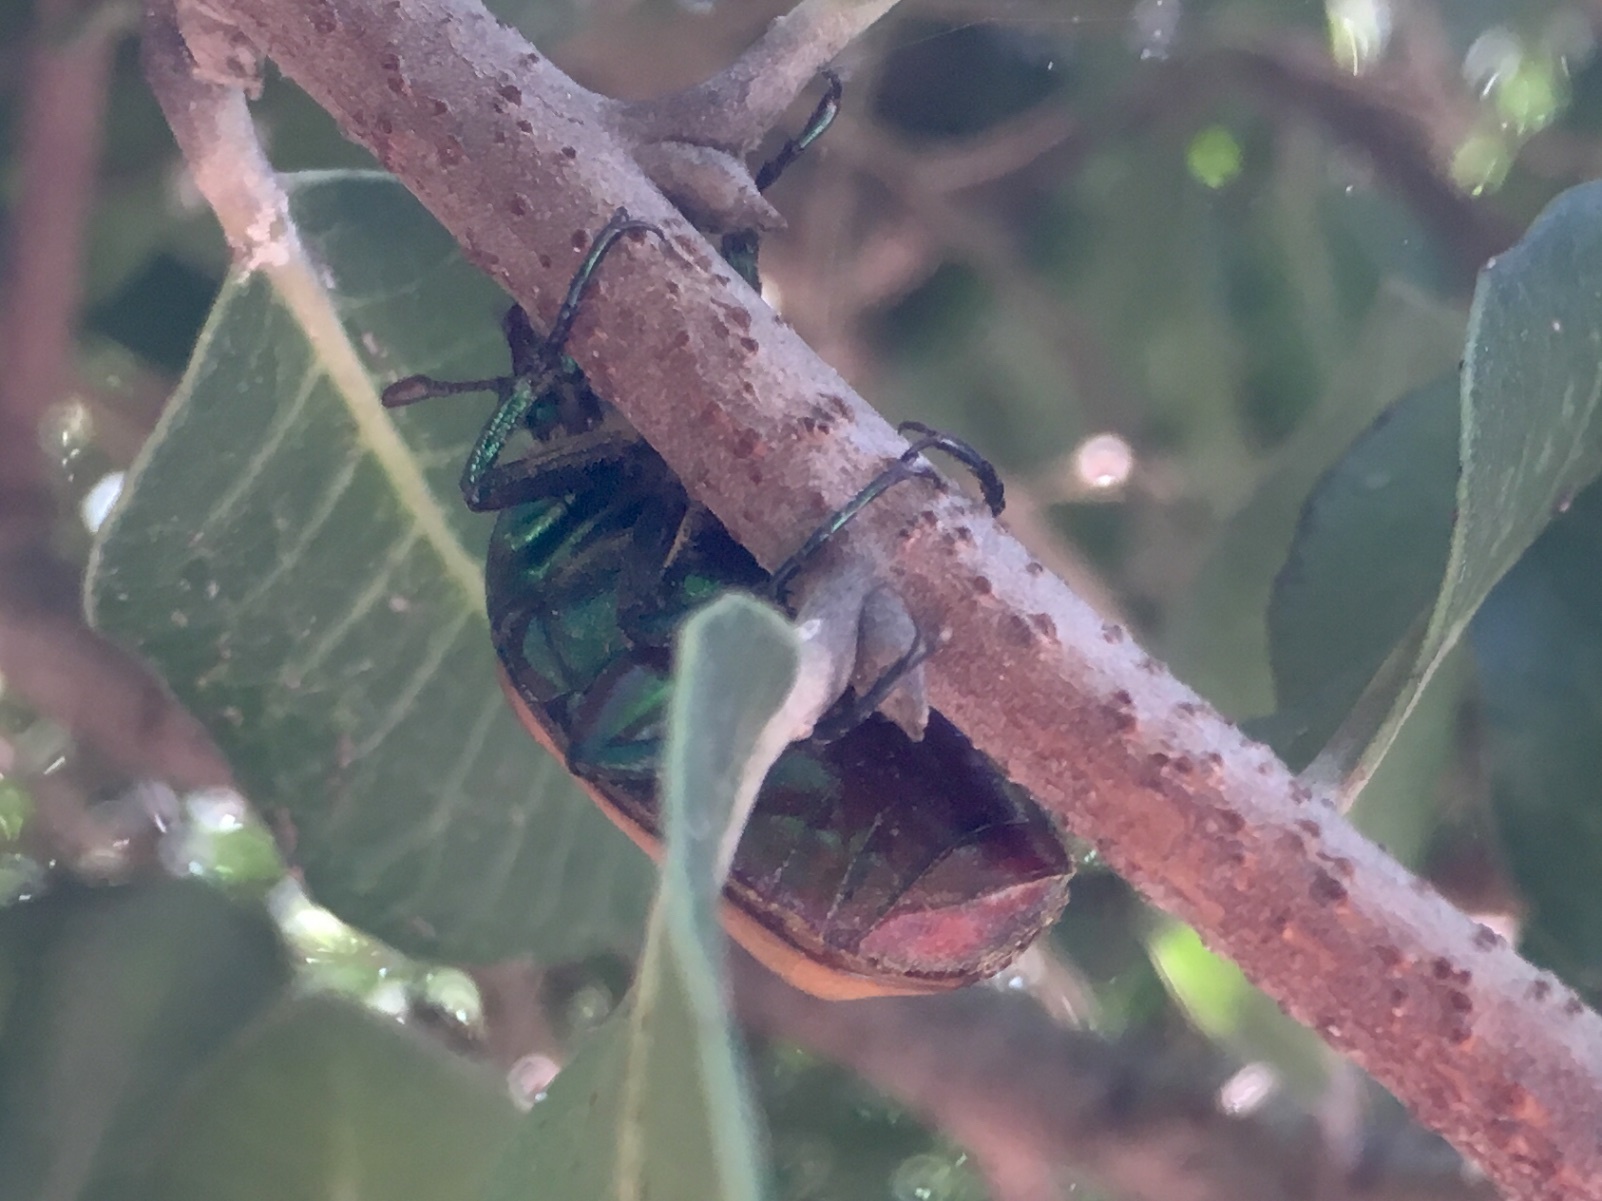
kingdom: Animalia
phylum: Arthropoda
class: Insecta
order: Coleoptera
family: Scarabaeidae
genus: Cotinis
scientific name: Cotinis mutabilis
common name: Figeater beetle
